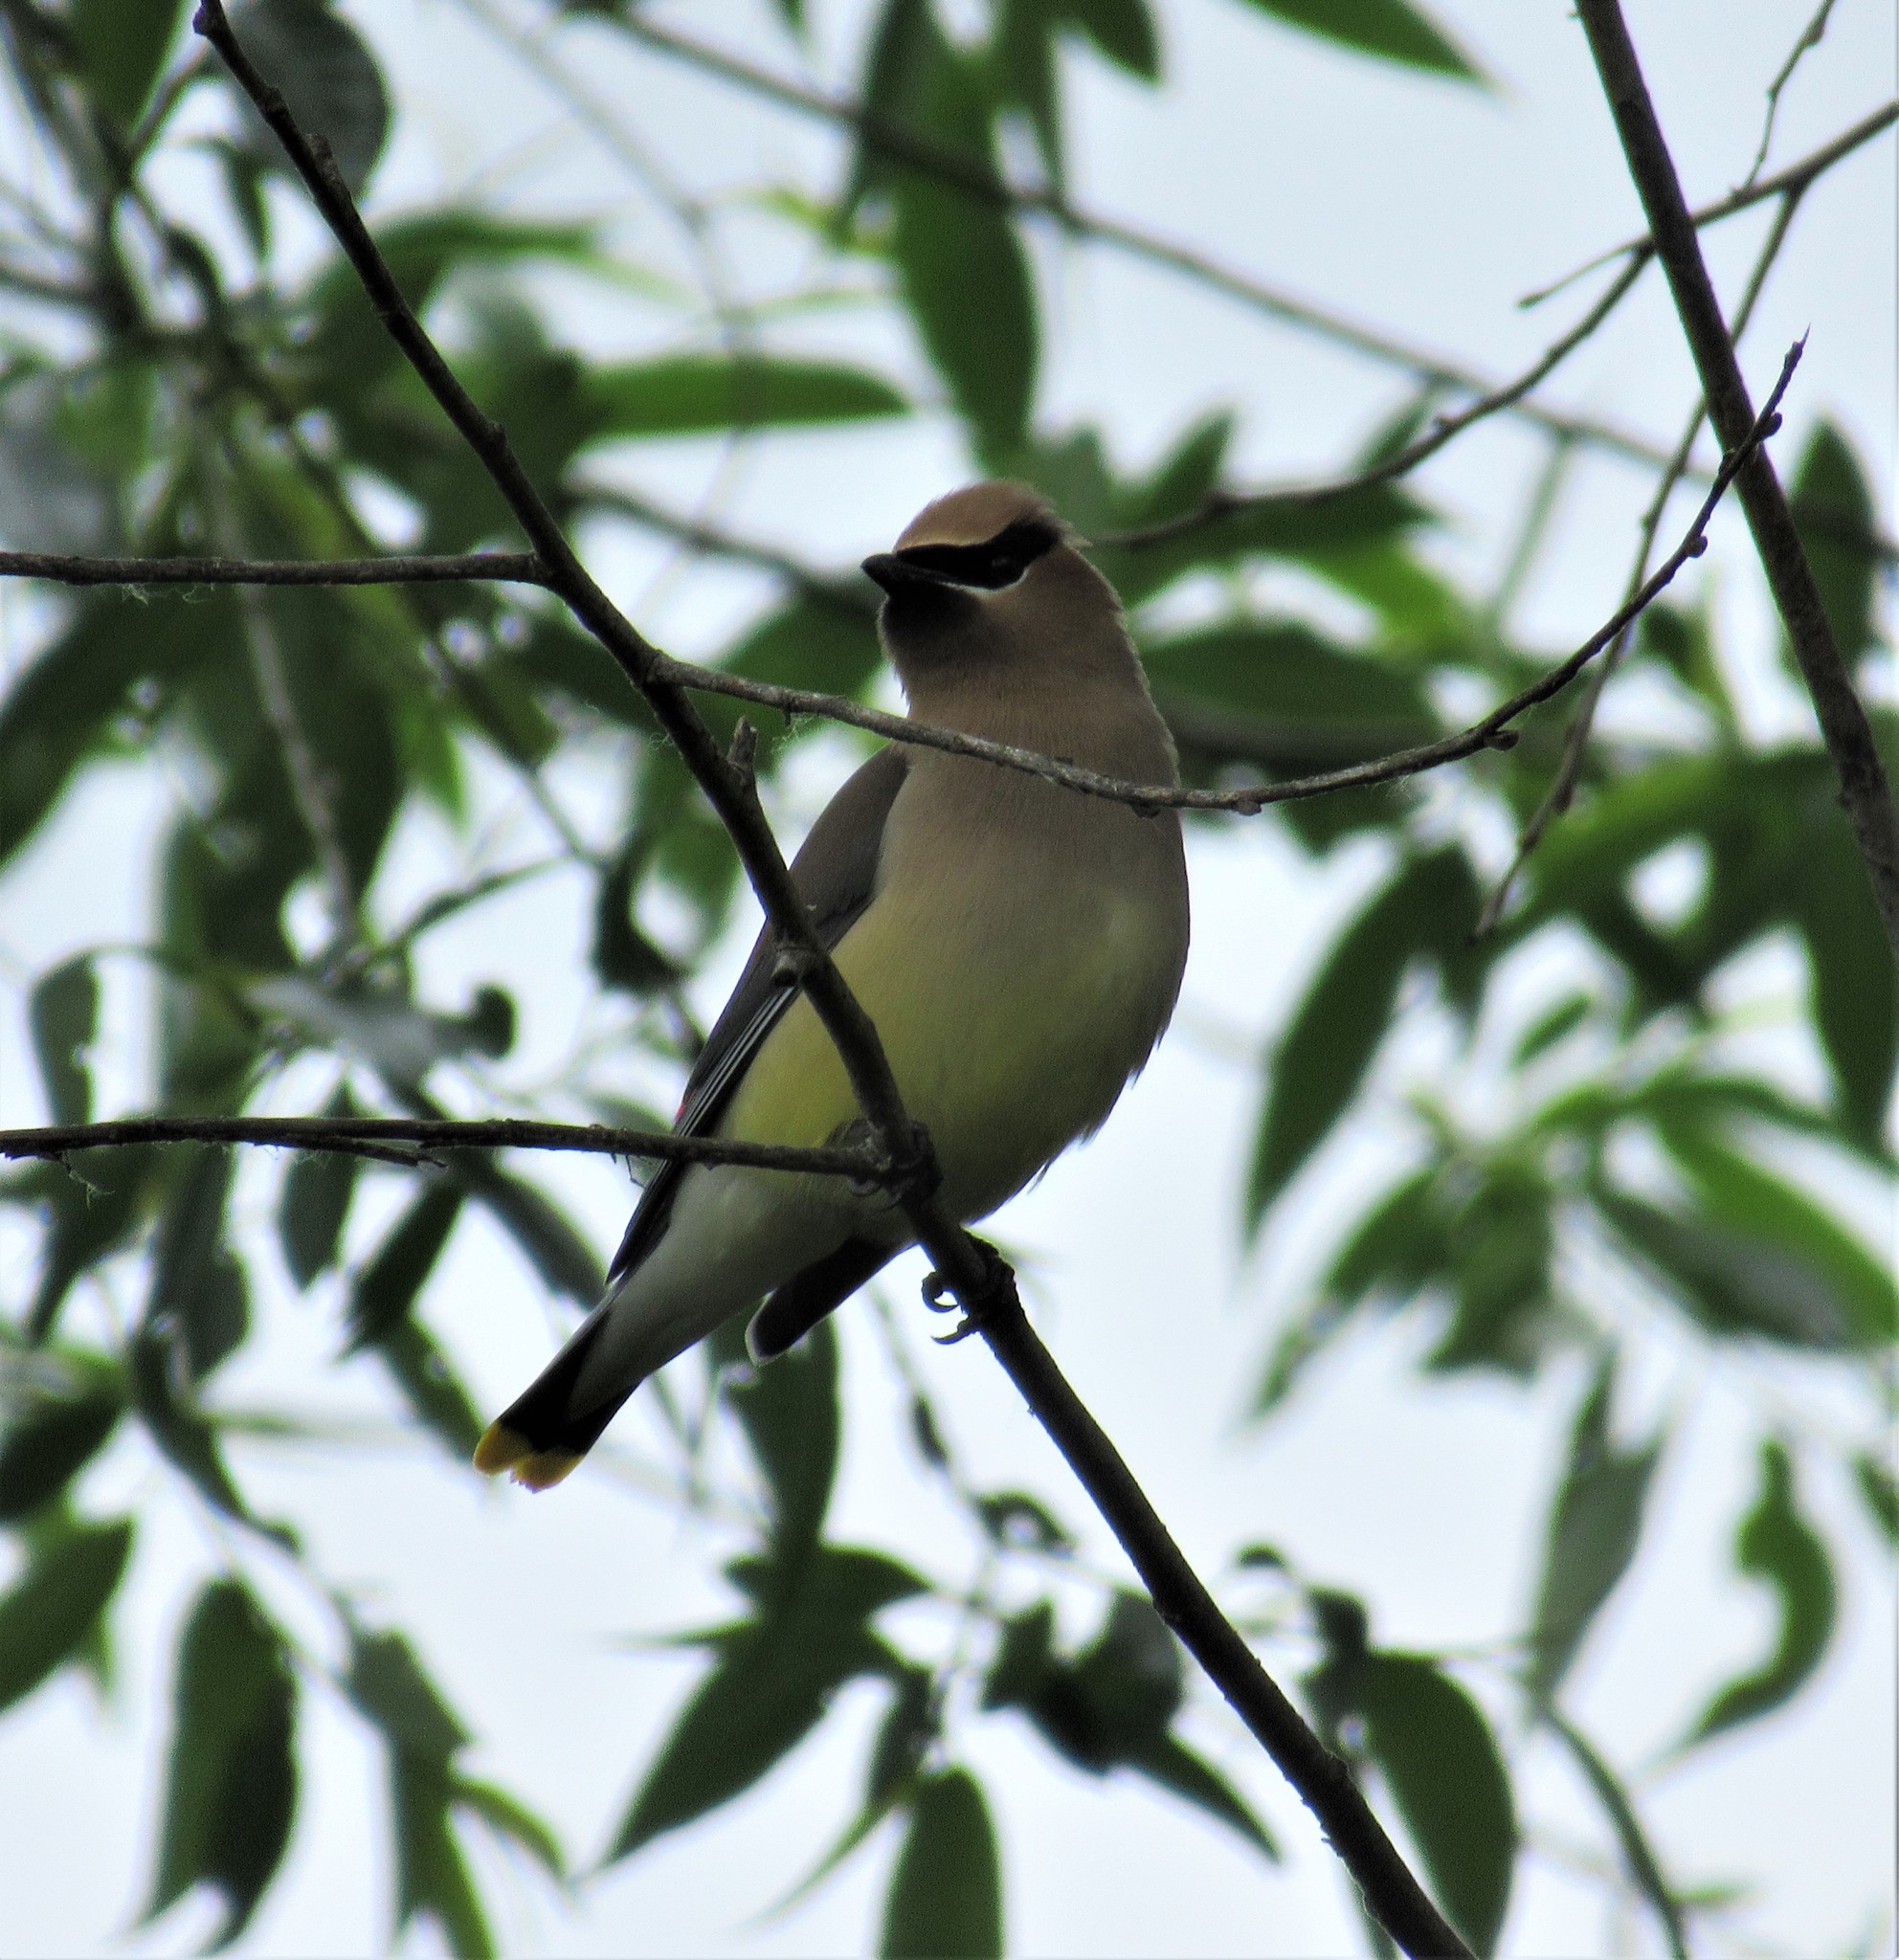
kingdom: Animalia
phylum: Chordata
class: Aves
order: Passeriformes
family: Bombycillidae
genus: Bombycilla
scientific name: Bombycilla cedrorum
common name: Cedar waxwing
